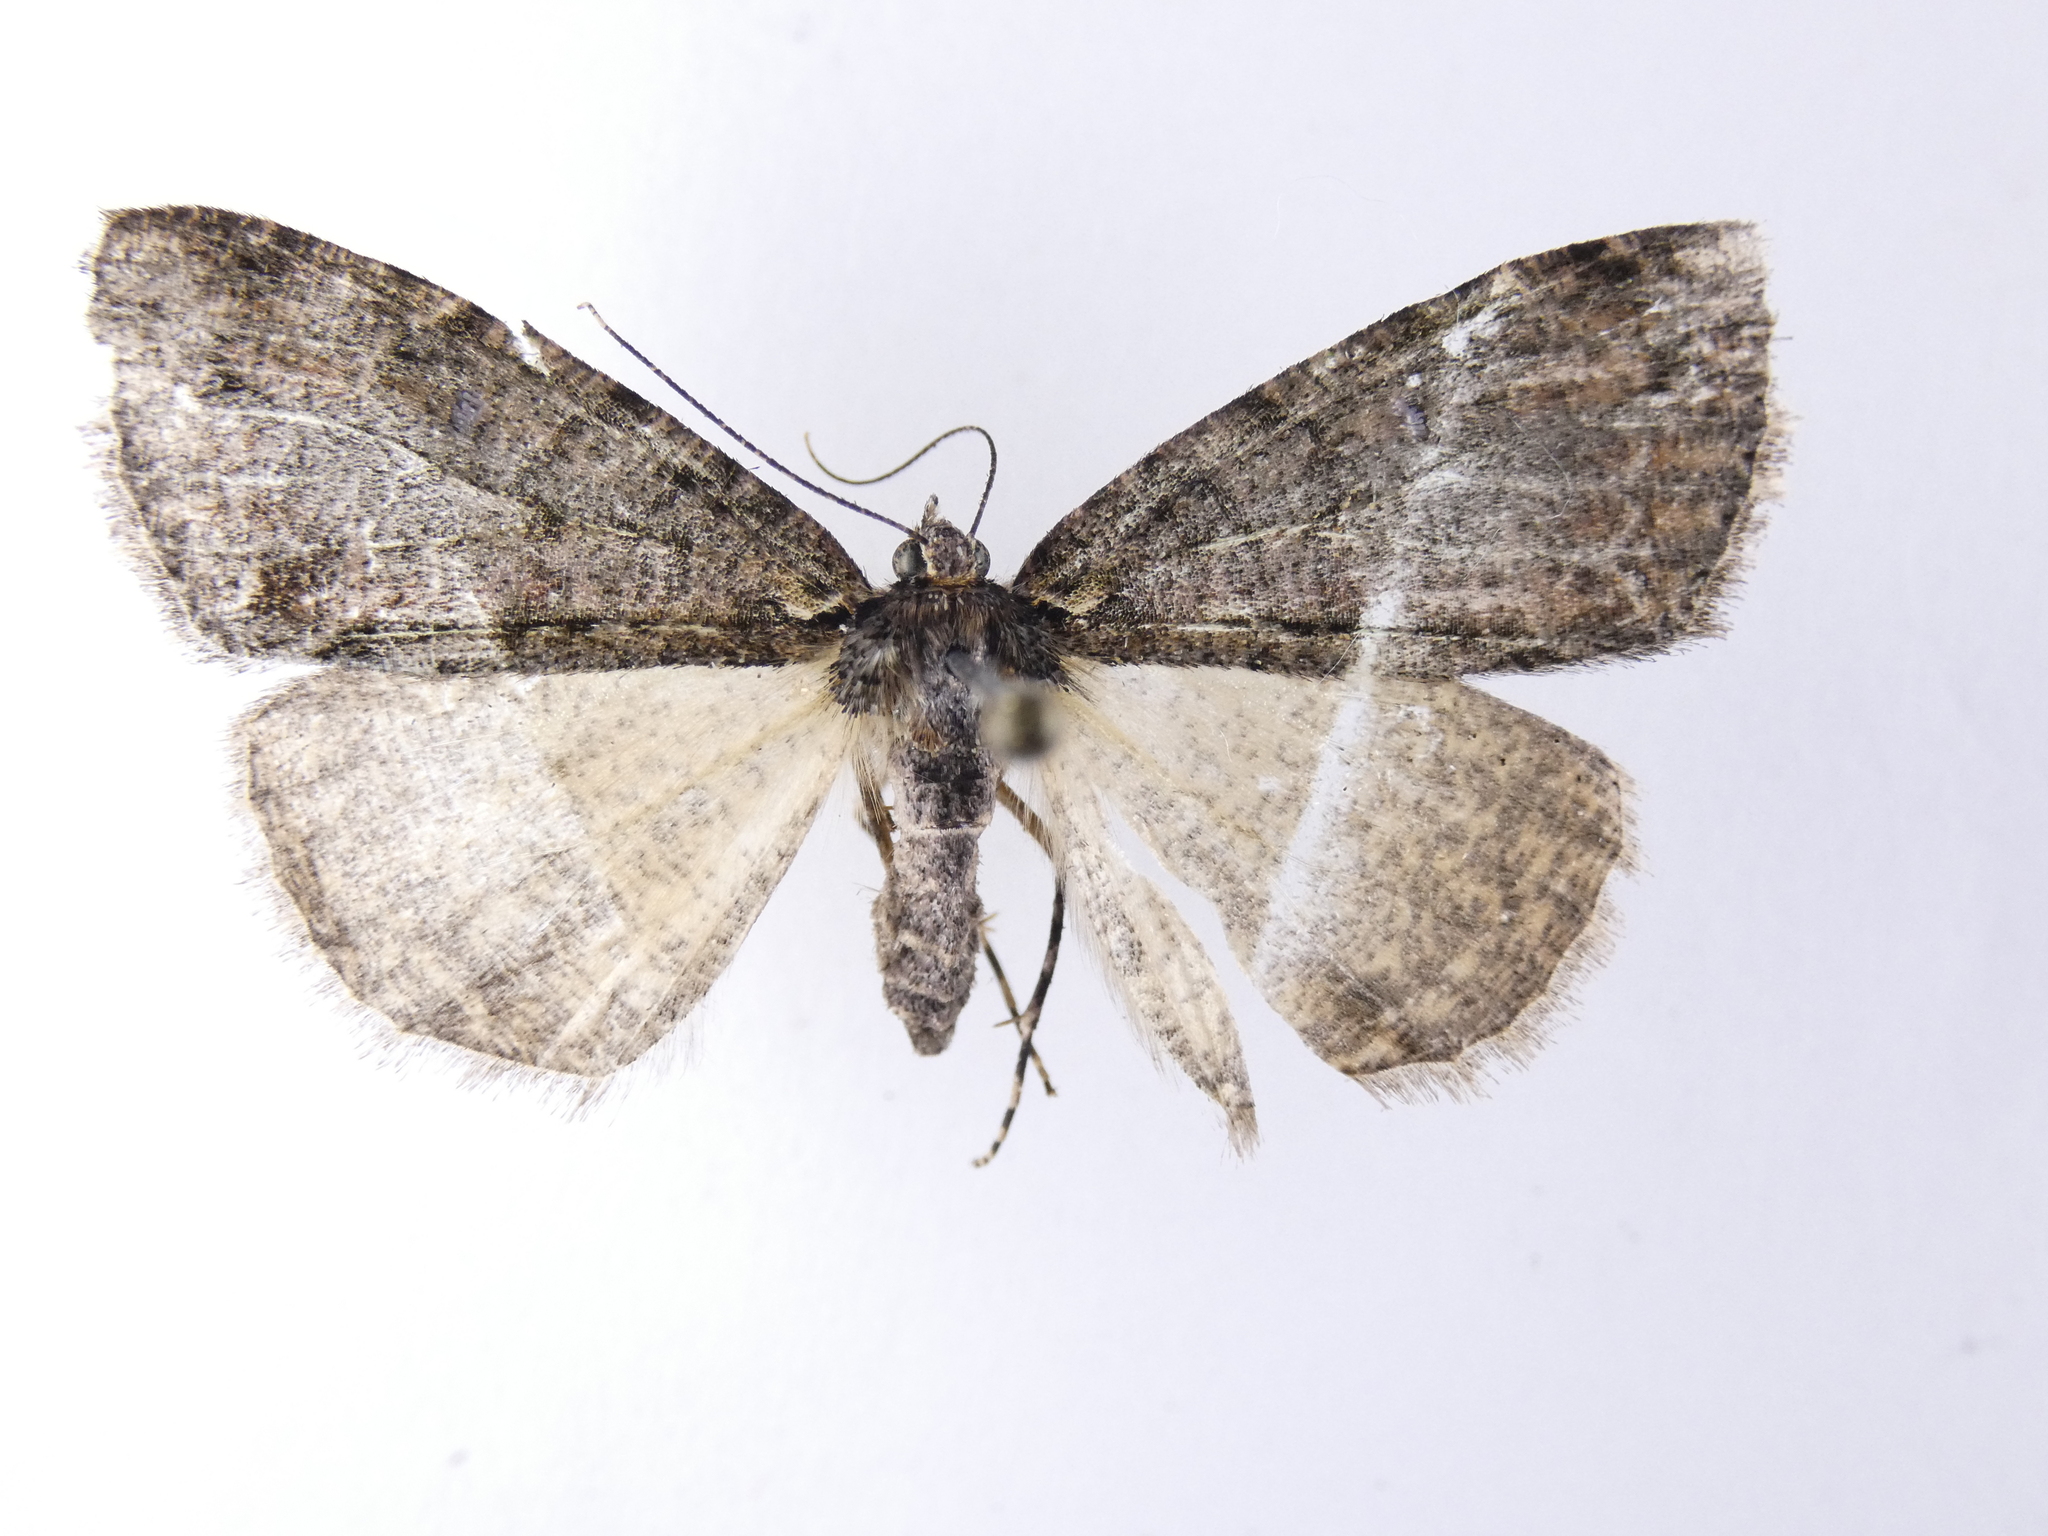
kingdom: Animalia
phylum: Arthropoda
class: Insecta
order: Lepidoptera
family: Geometridae
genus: Pseudocoremia
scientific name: Pseudocoremia suavis
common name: Common forest looper
